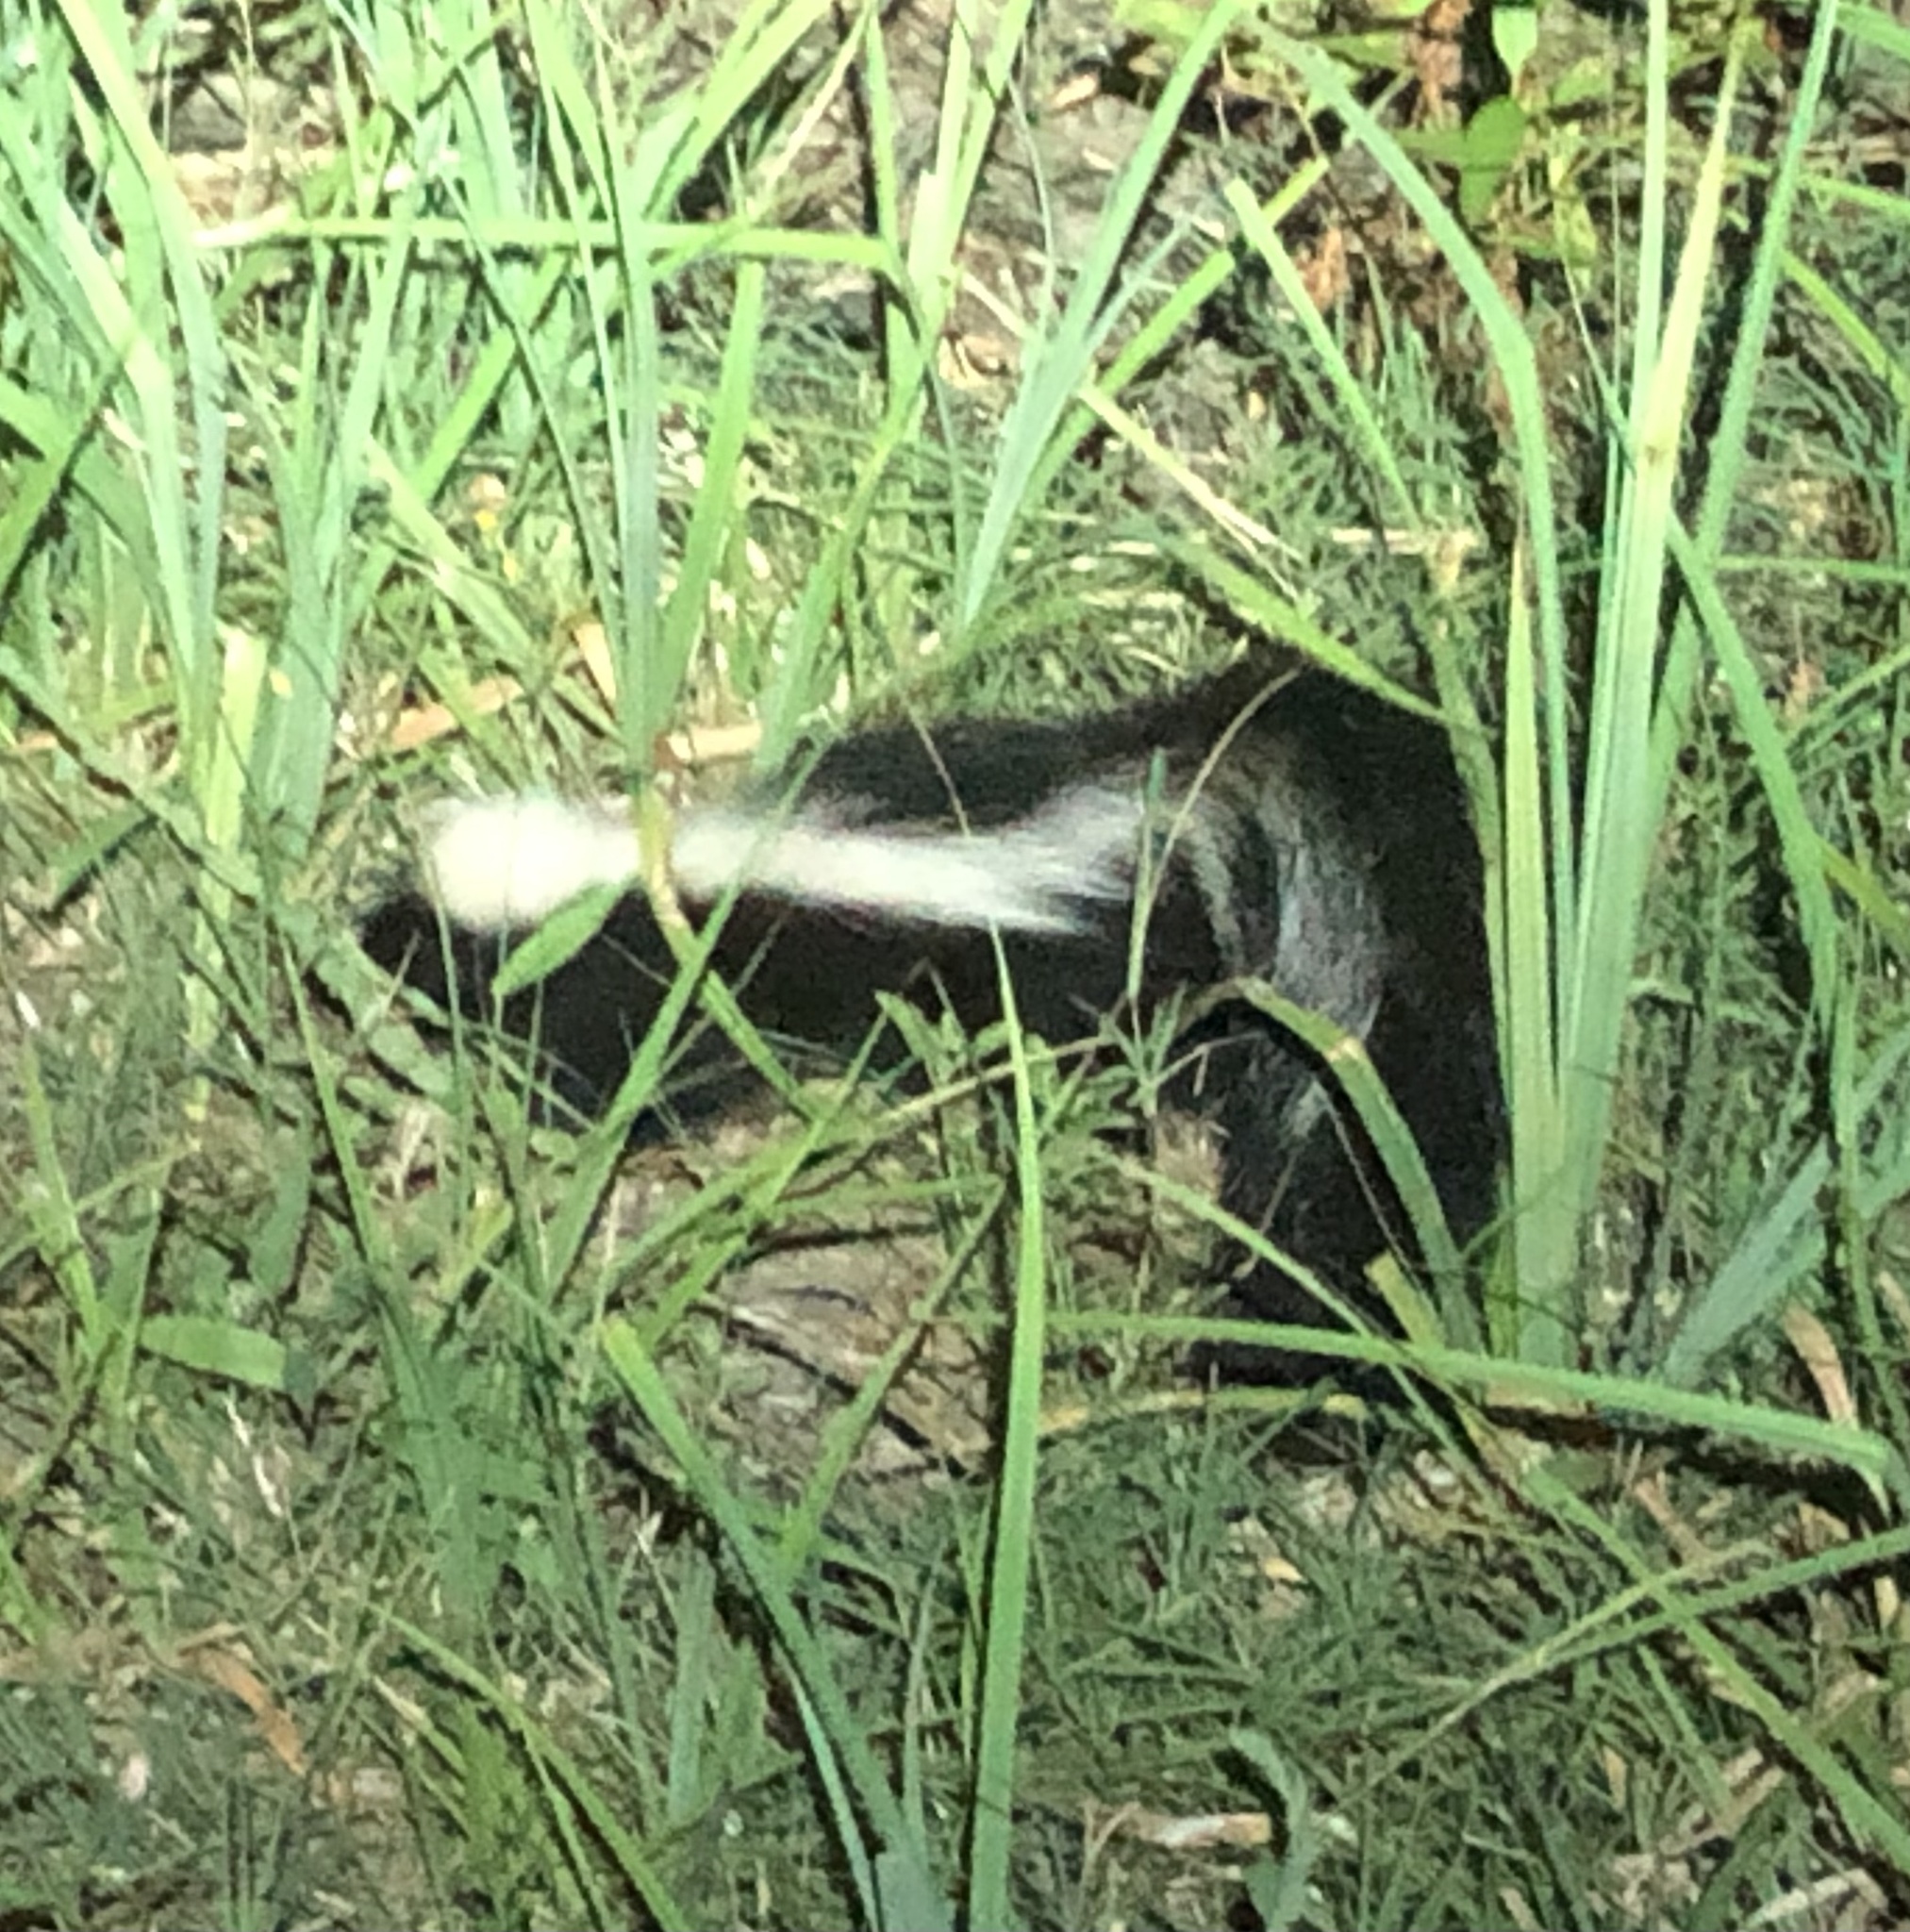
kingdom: Animalia
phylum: Chordata
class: Mammalia
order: Carnivora
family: Mephitidae
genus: Mephitis
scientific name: Mephitis mephitis
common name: Striped skunk
